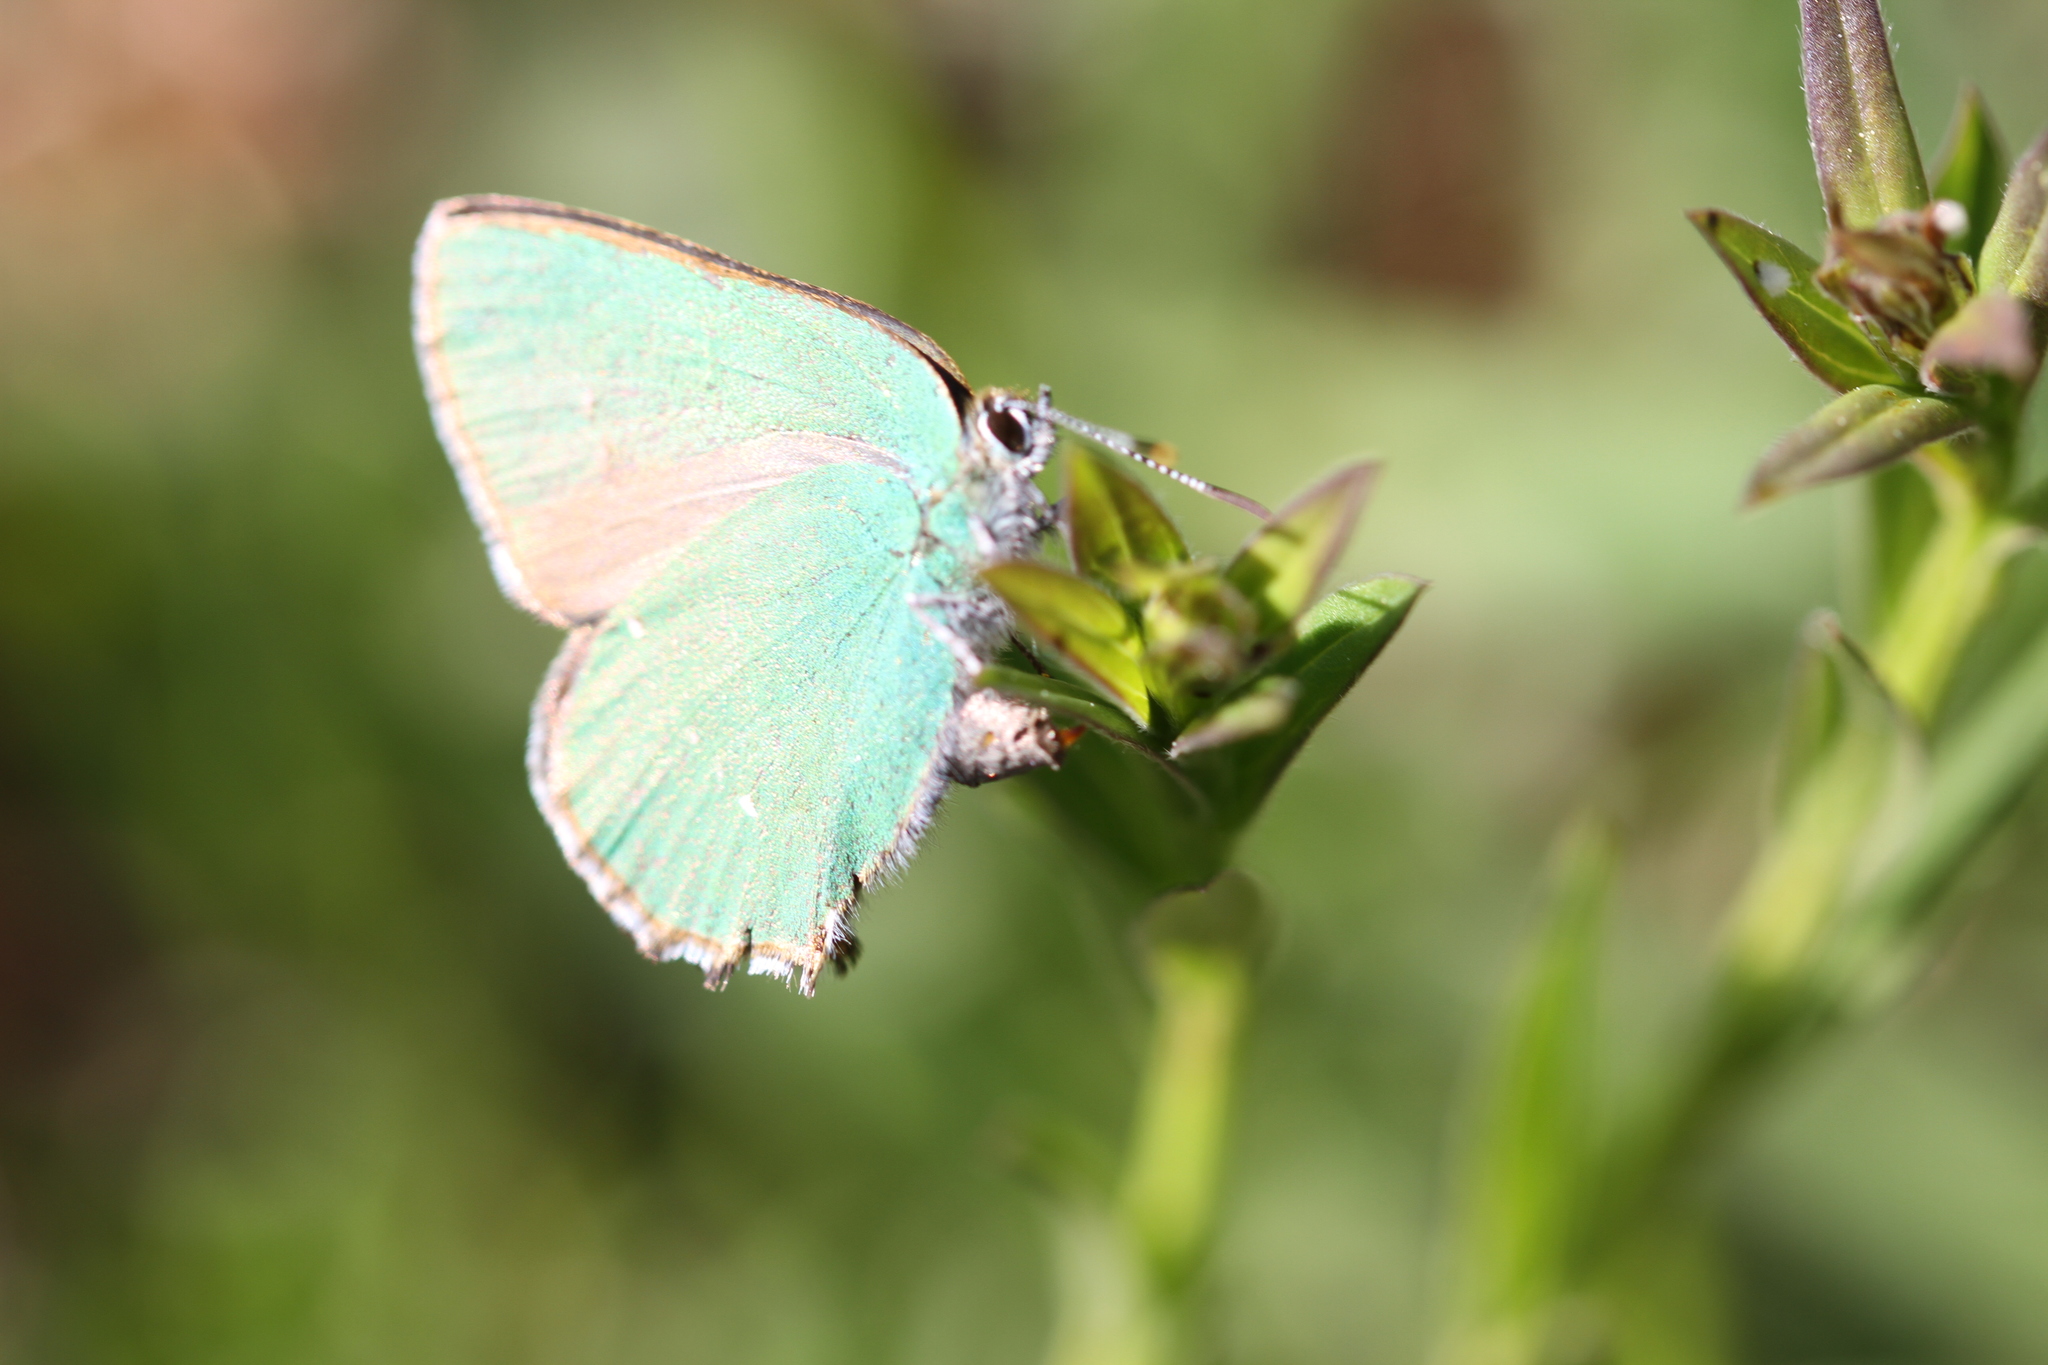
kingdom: Animalia
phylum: Arthropoda
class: Insecta
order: Lepidoptera
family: Lycaenidae
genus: Callophrys
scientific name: Callophrys rubi
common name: Green hairstreak
